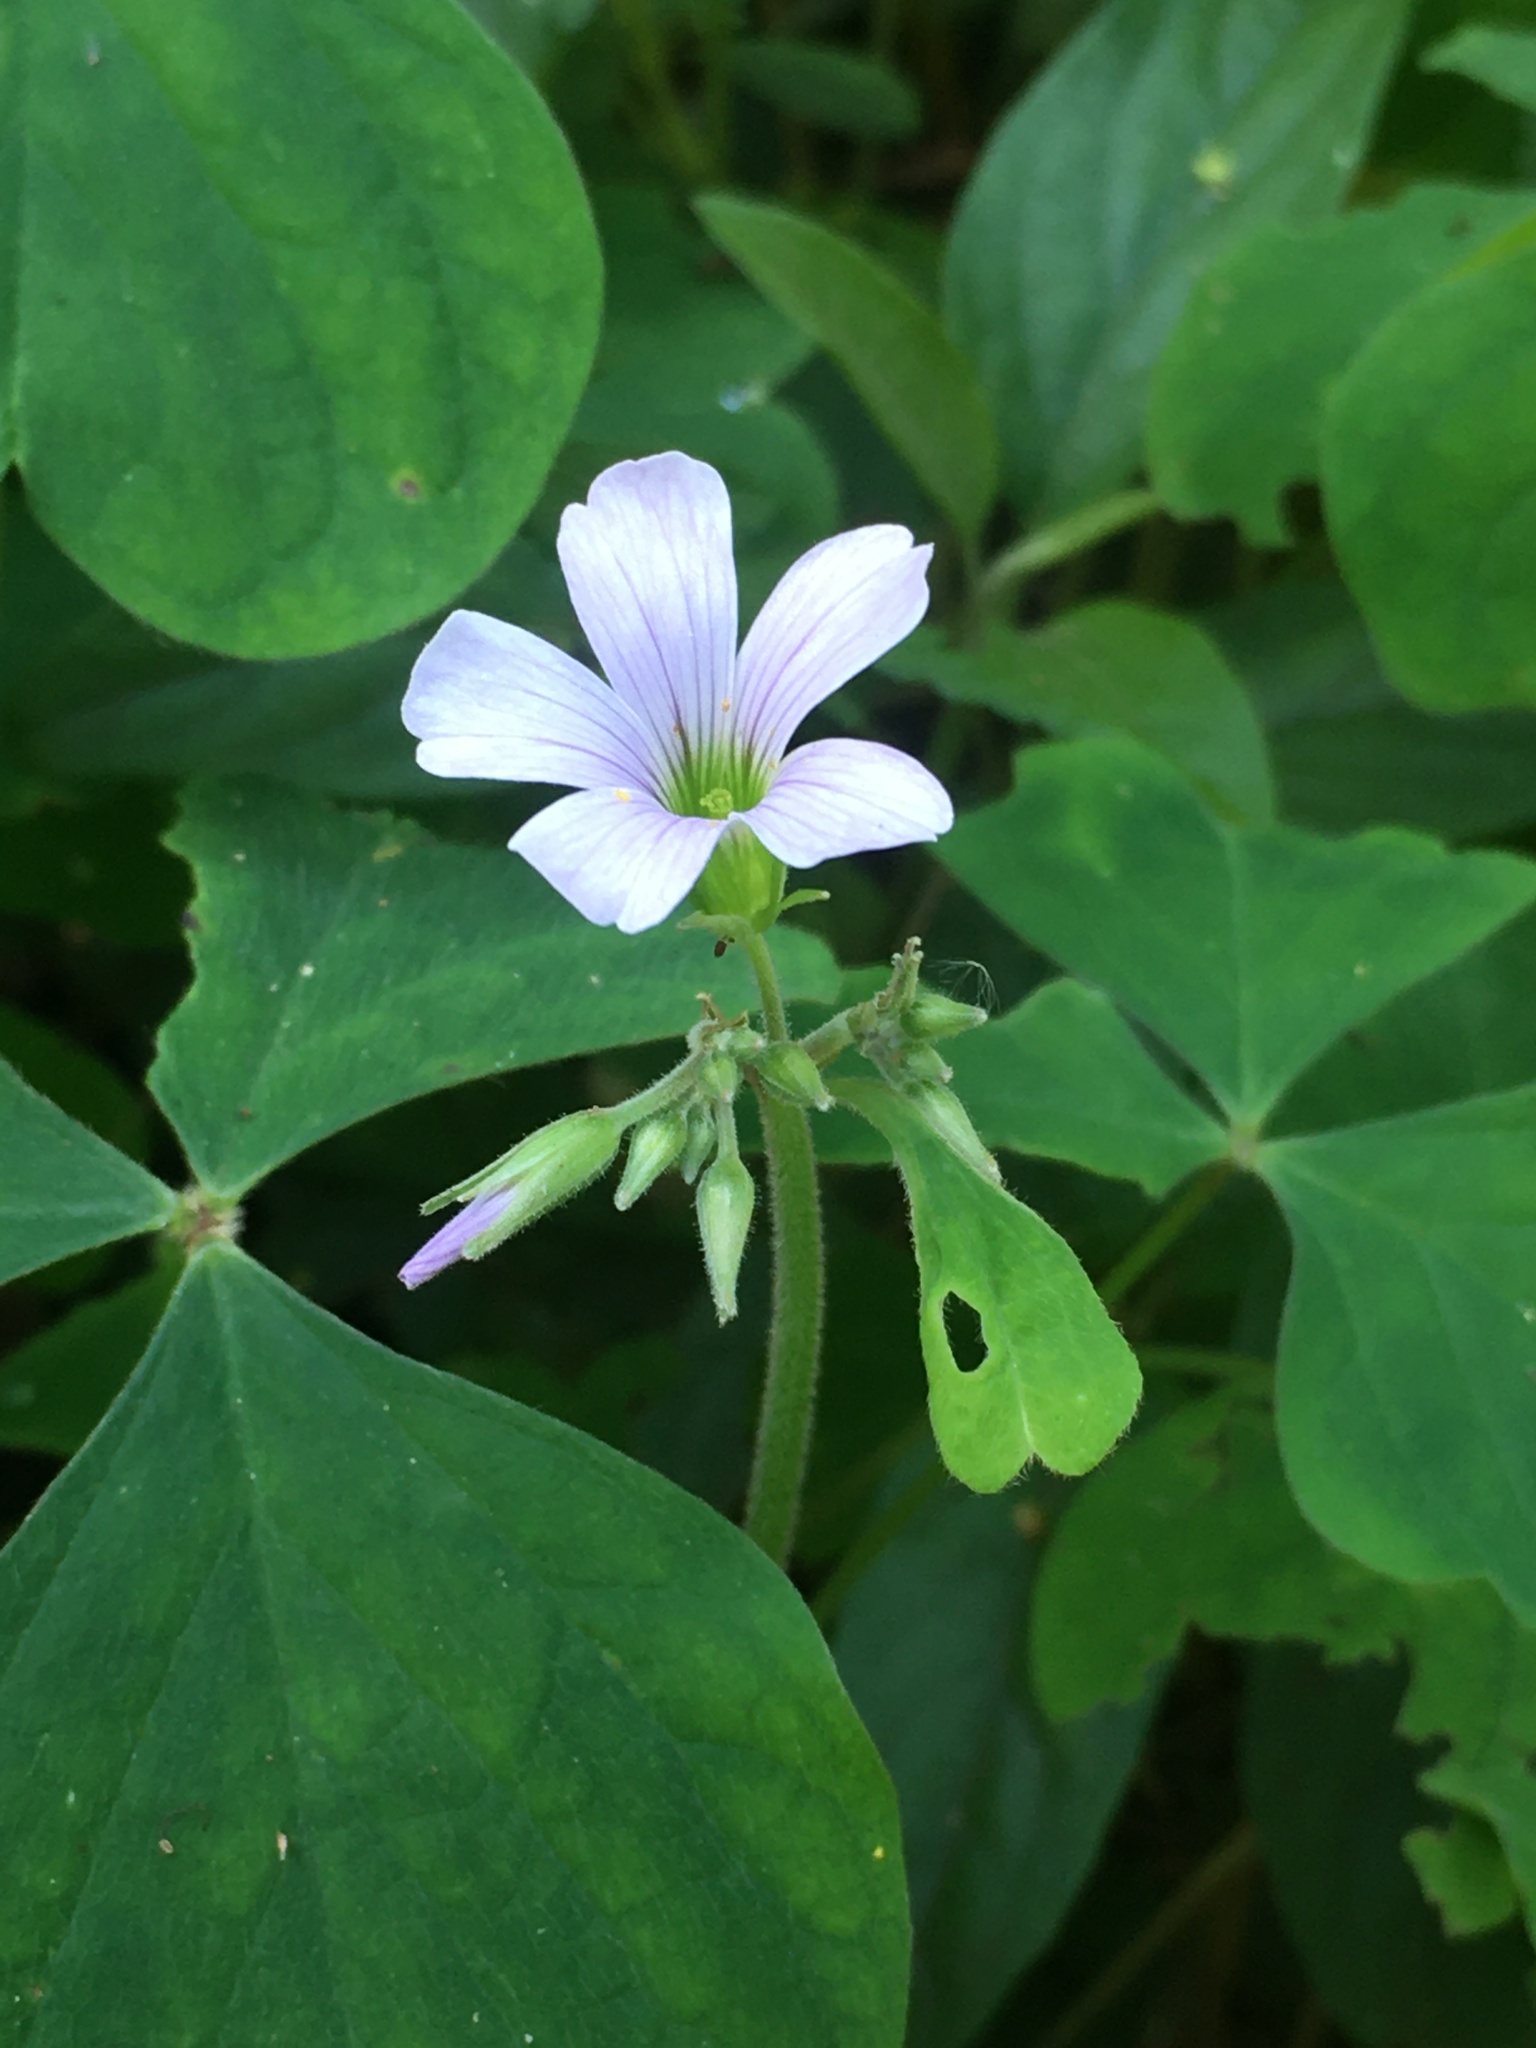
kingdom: Plantae
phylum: Tracheophyta
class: Magnoliopsida
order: Oxalidales
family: Oxalidaceae
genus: Oxalis
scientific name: Oxalis linarantha
